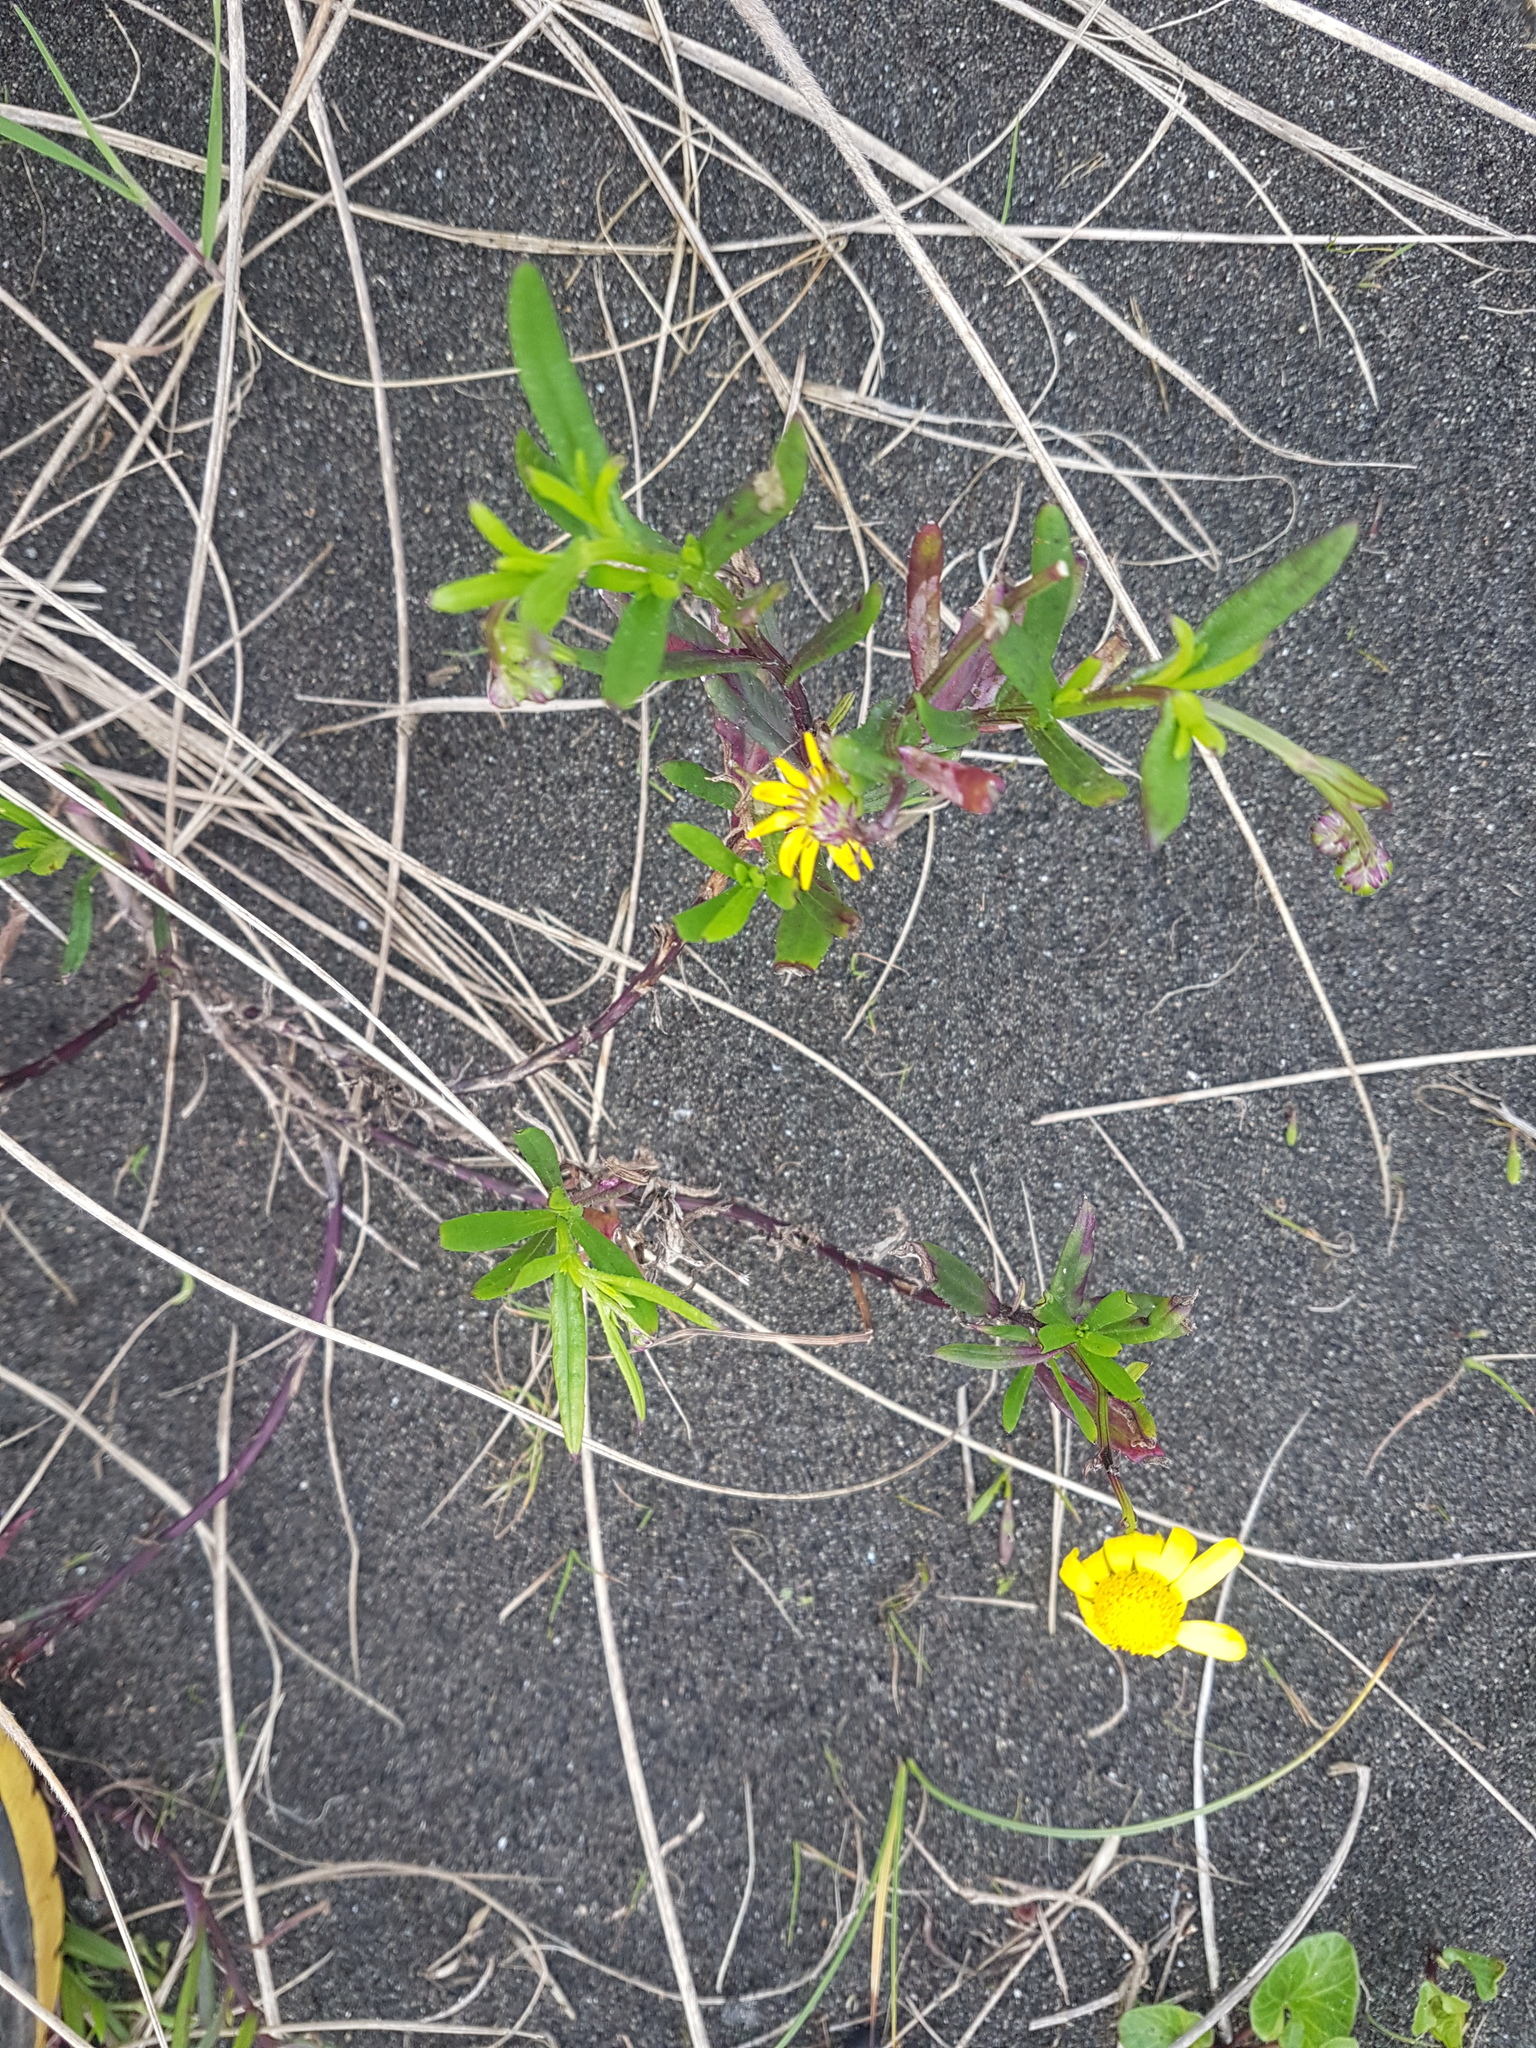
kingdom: Plantae
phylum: Tracheophyta
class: Magnoliopsida
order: Asterales
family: Asteraceae
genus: Senecio
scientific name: Senecio skirrhodon
